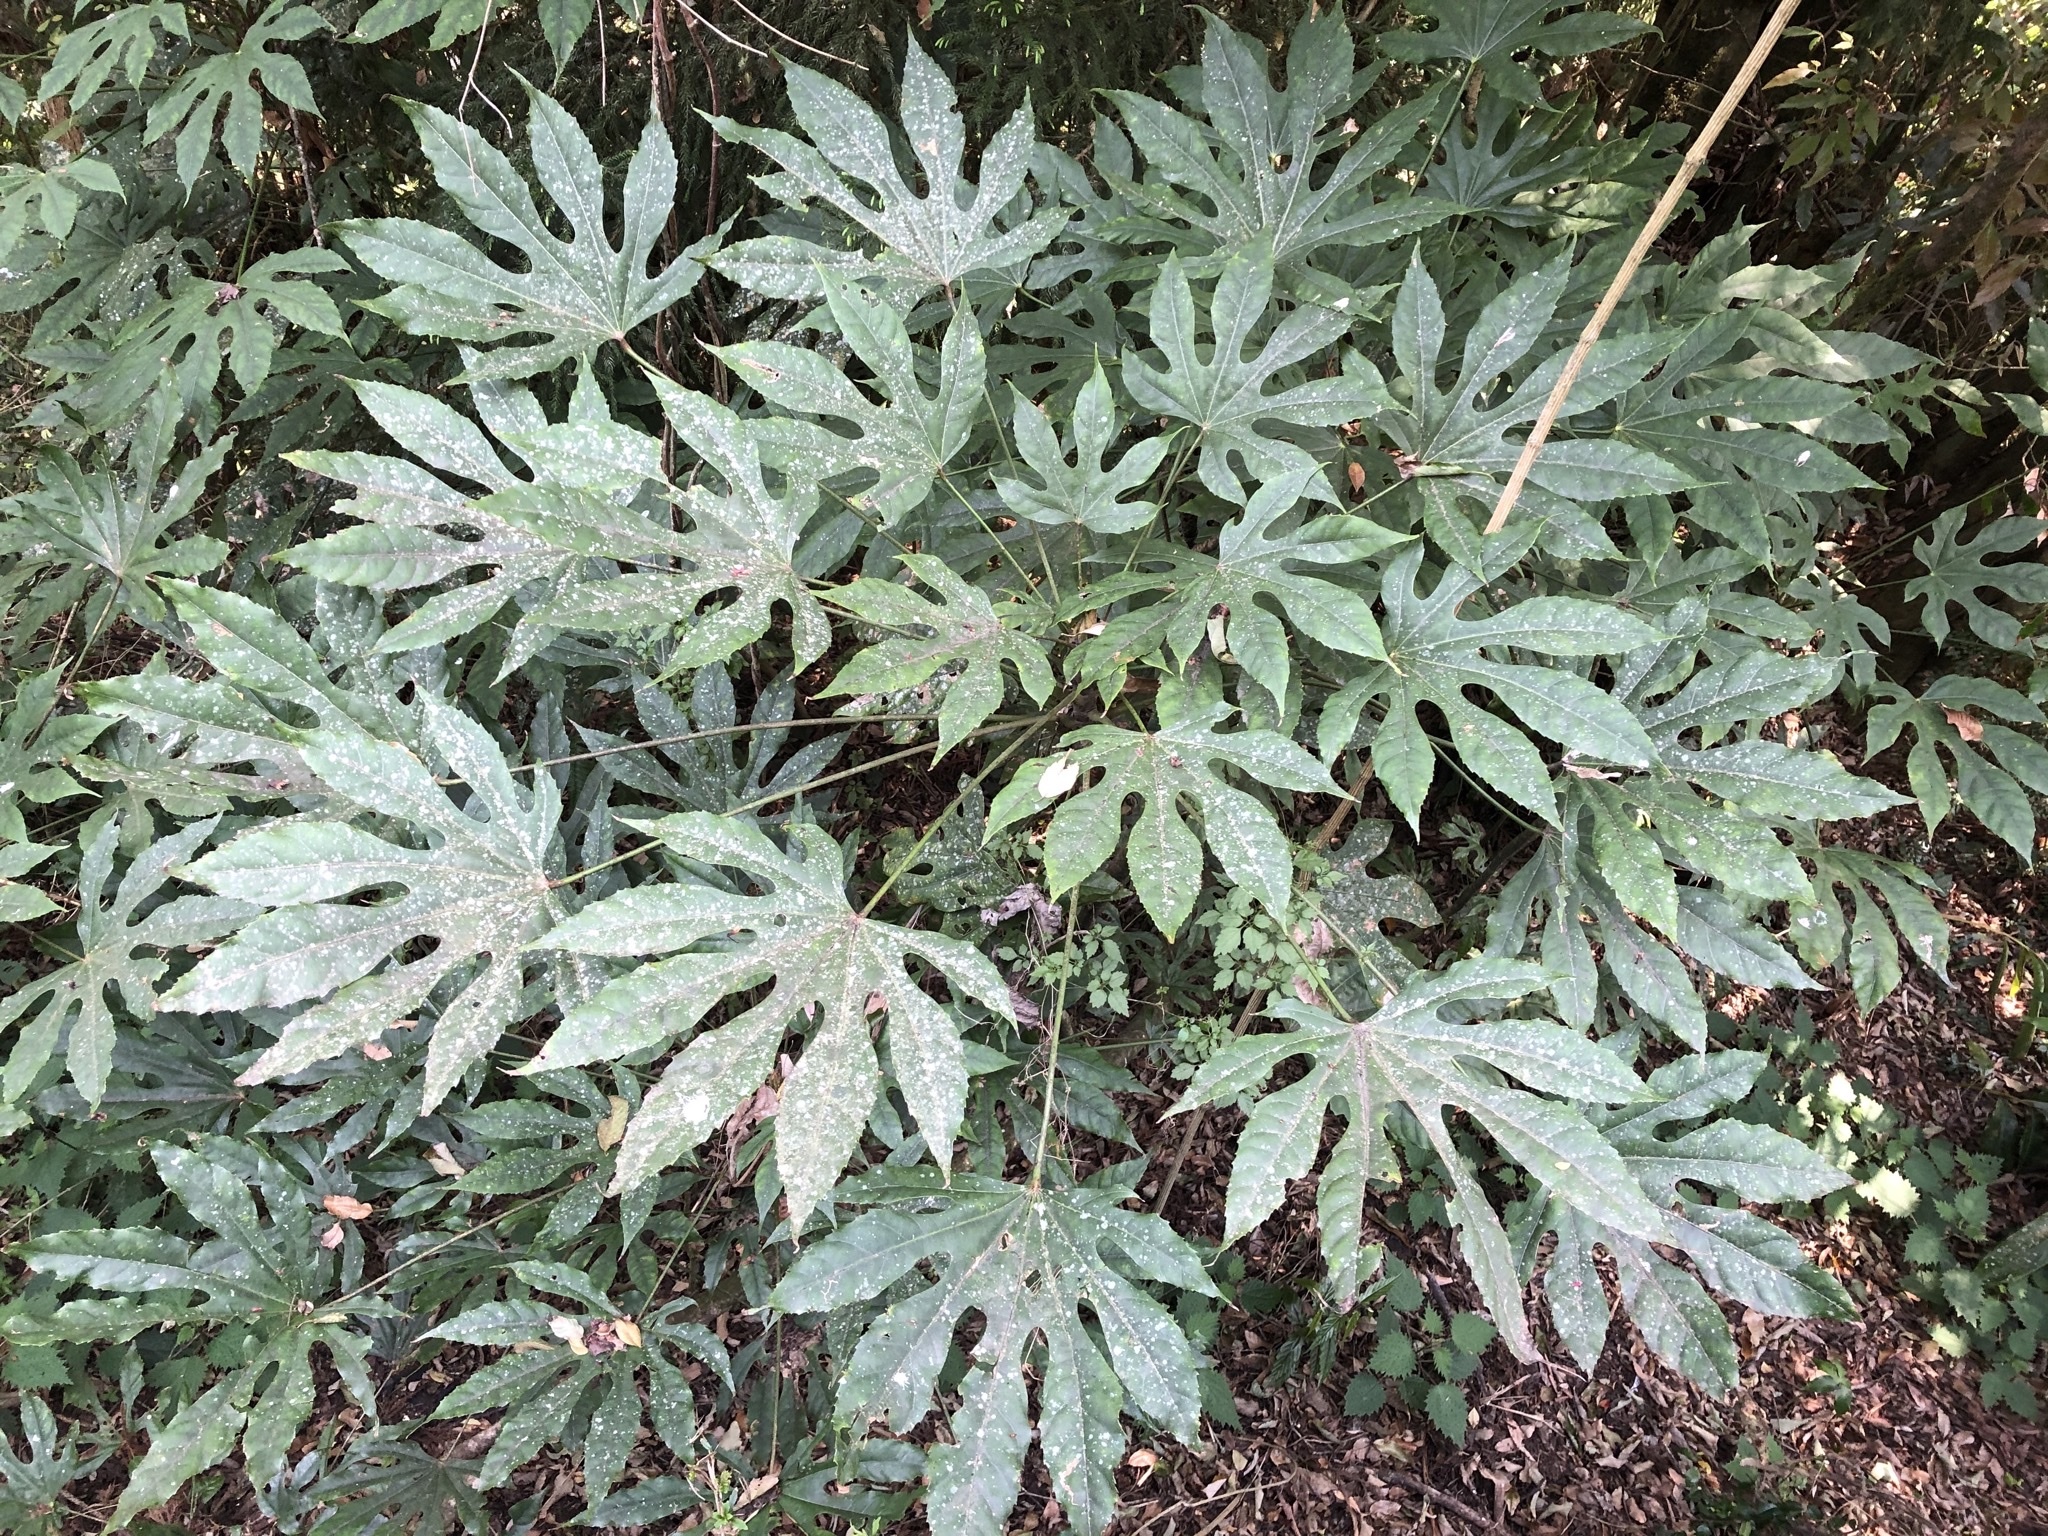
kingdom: Plantae
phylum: Tracheophyta
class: Magnoliopsida
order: Apiales
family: Araliaceae
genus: Fatsia
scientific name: Fatsia polycarpa
